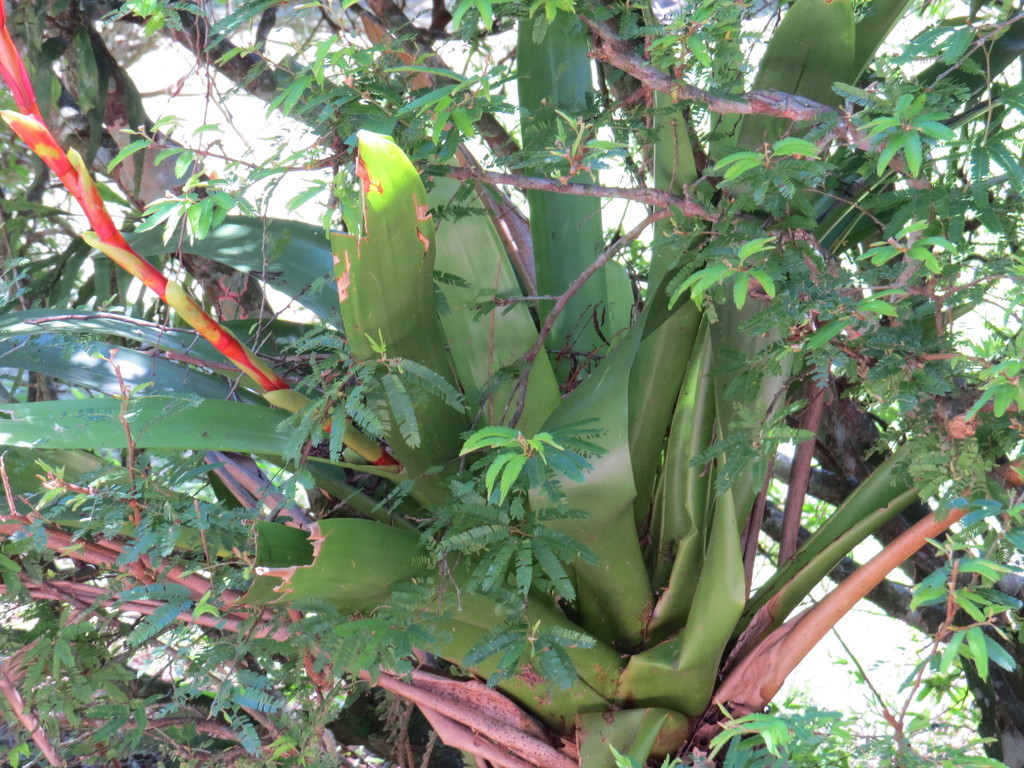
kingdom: Plantae
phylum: Tracheophyta
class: Liliopsida
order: Poales
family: Bromeliaceae
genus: Vriesea
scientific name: Vriesea friburgensis
